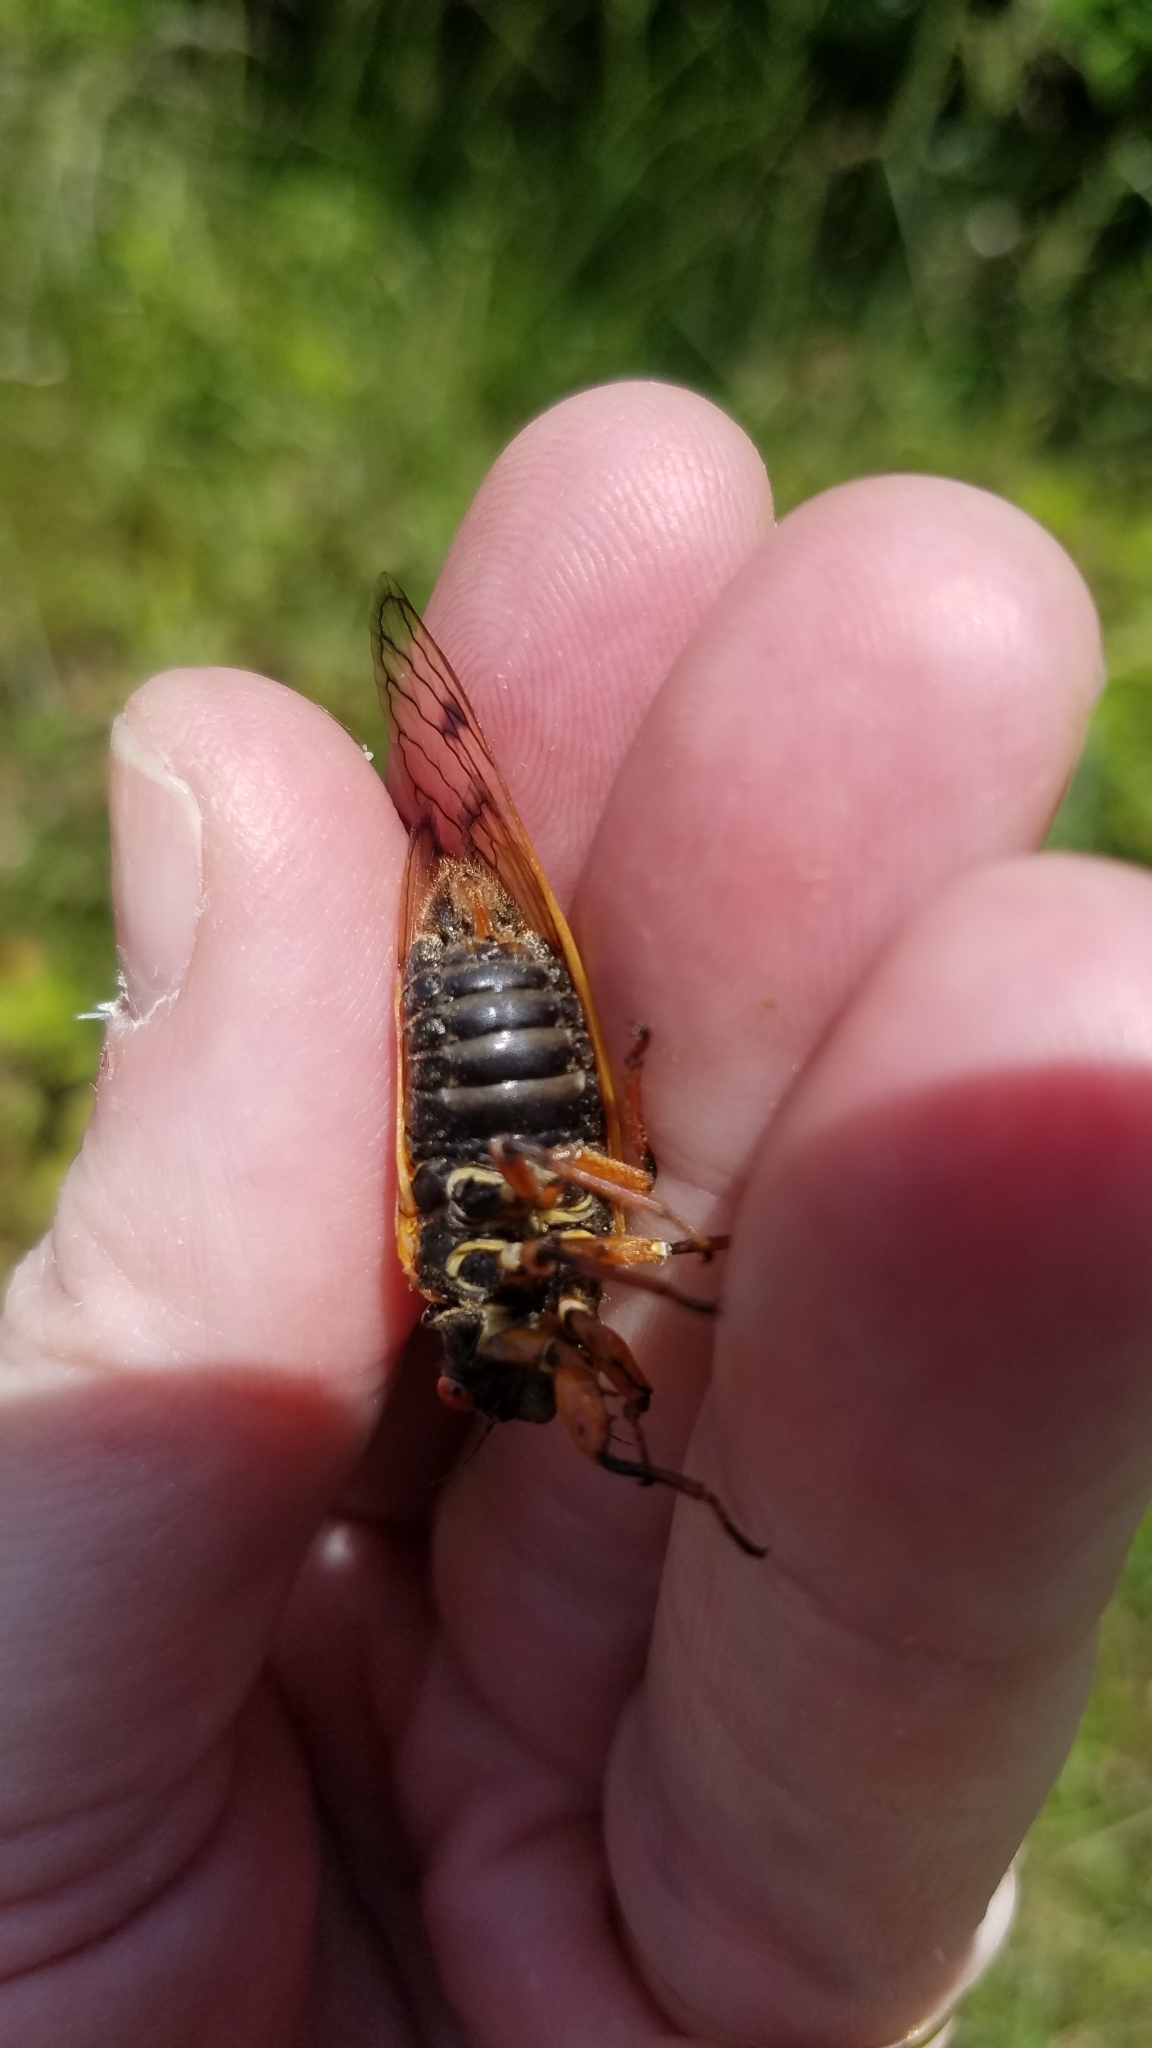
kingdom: Animalia
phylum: Arthropoda
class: Insecta
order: Hemiptera
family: Cicadidae
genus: Magicicada
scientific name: Magicicada cassini
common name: Cassin's 17-year cicada
